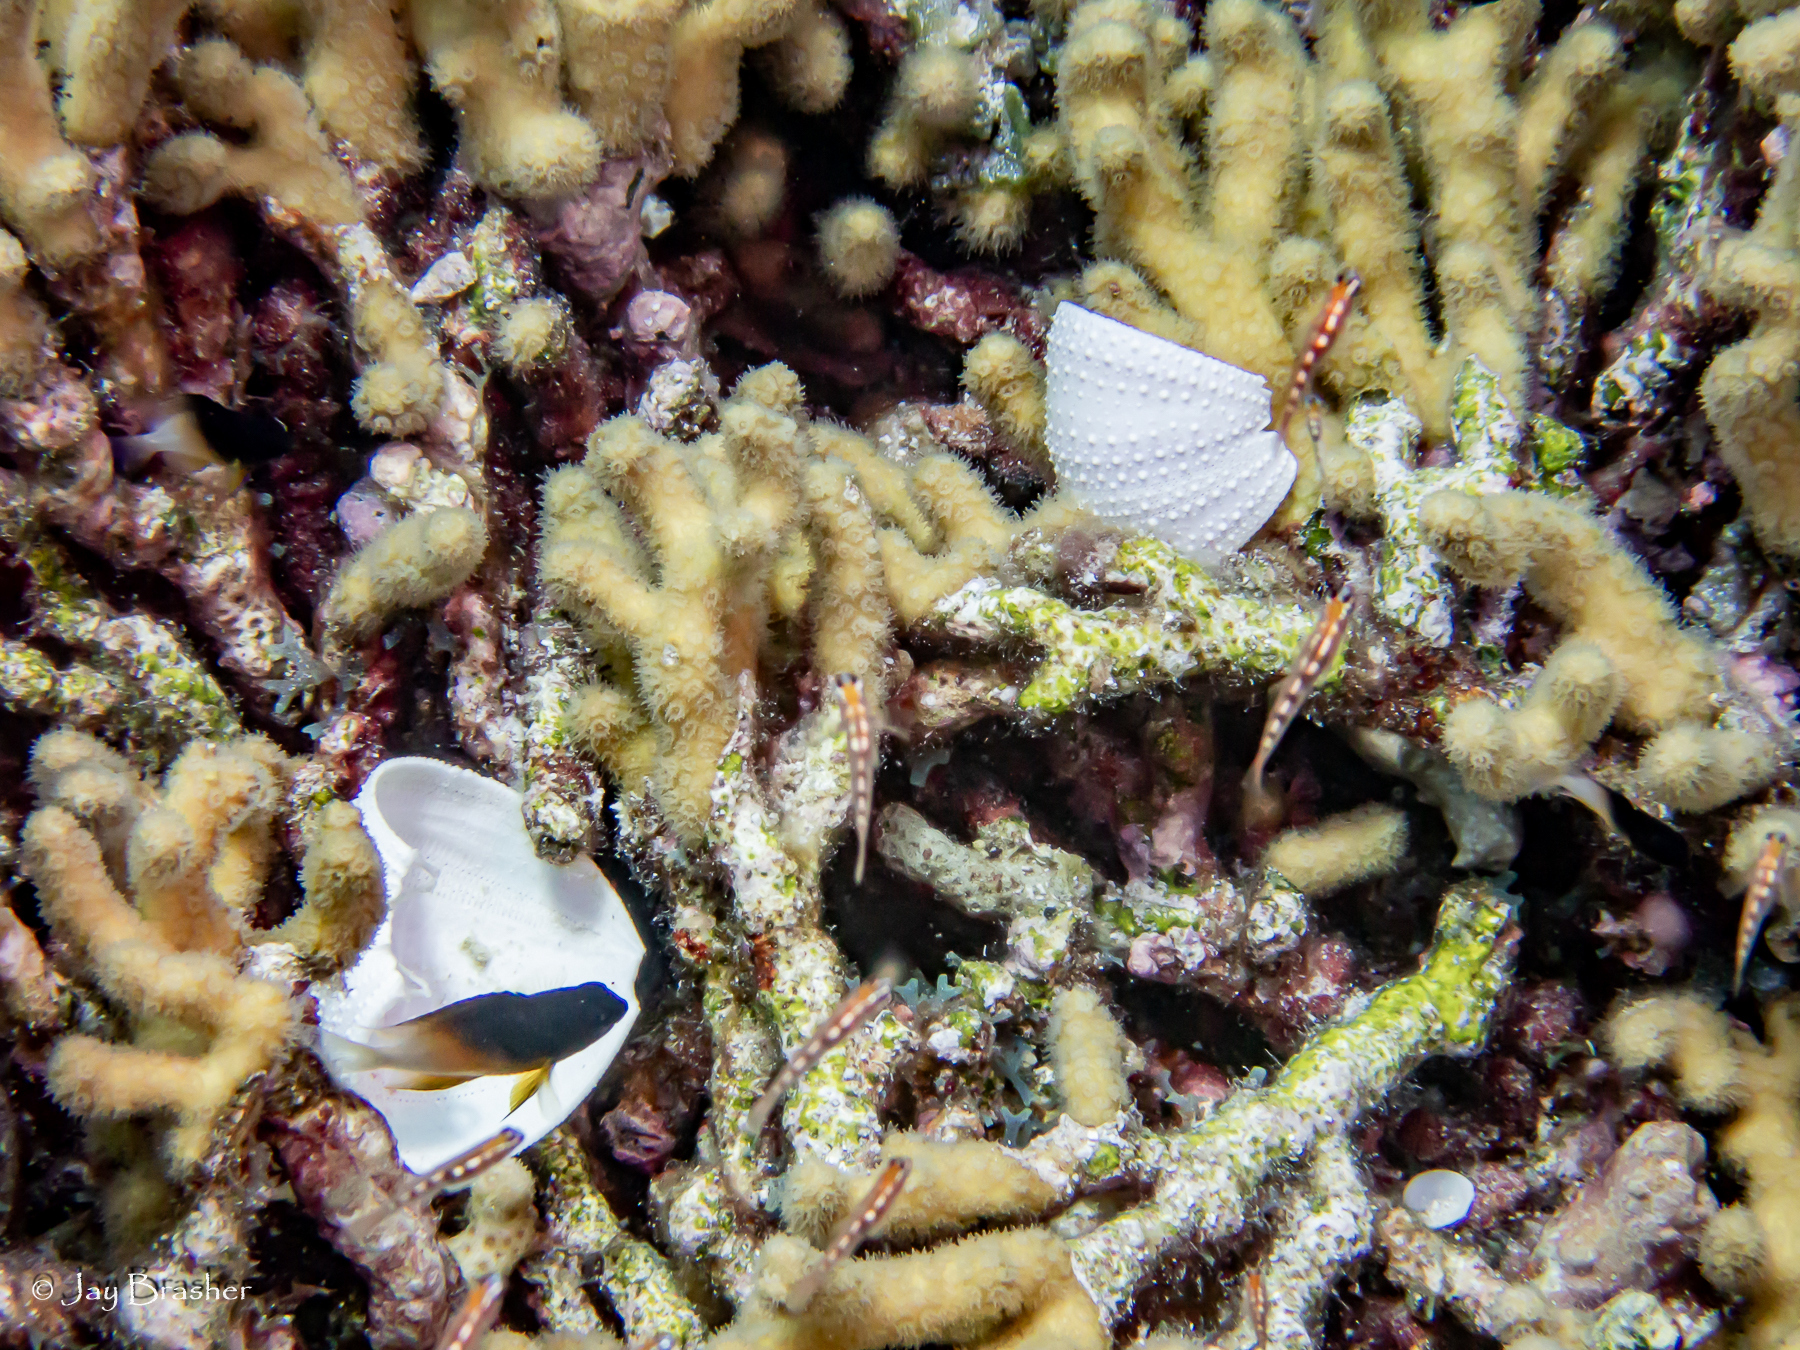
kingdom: Animalia
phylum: Cnidaria
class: Anthozoa
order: Scleractinia
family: Pocilloporidae
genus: Madracis
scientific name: Madracis auretenra
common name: Yellow pencil coral
